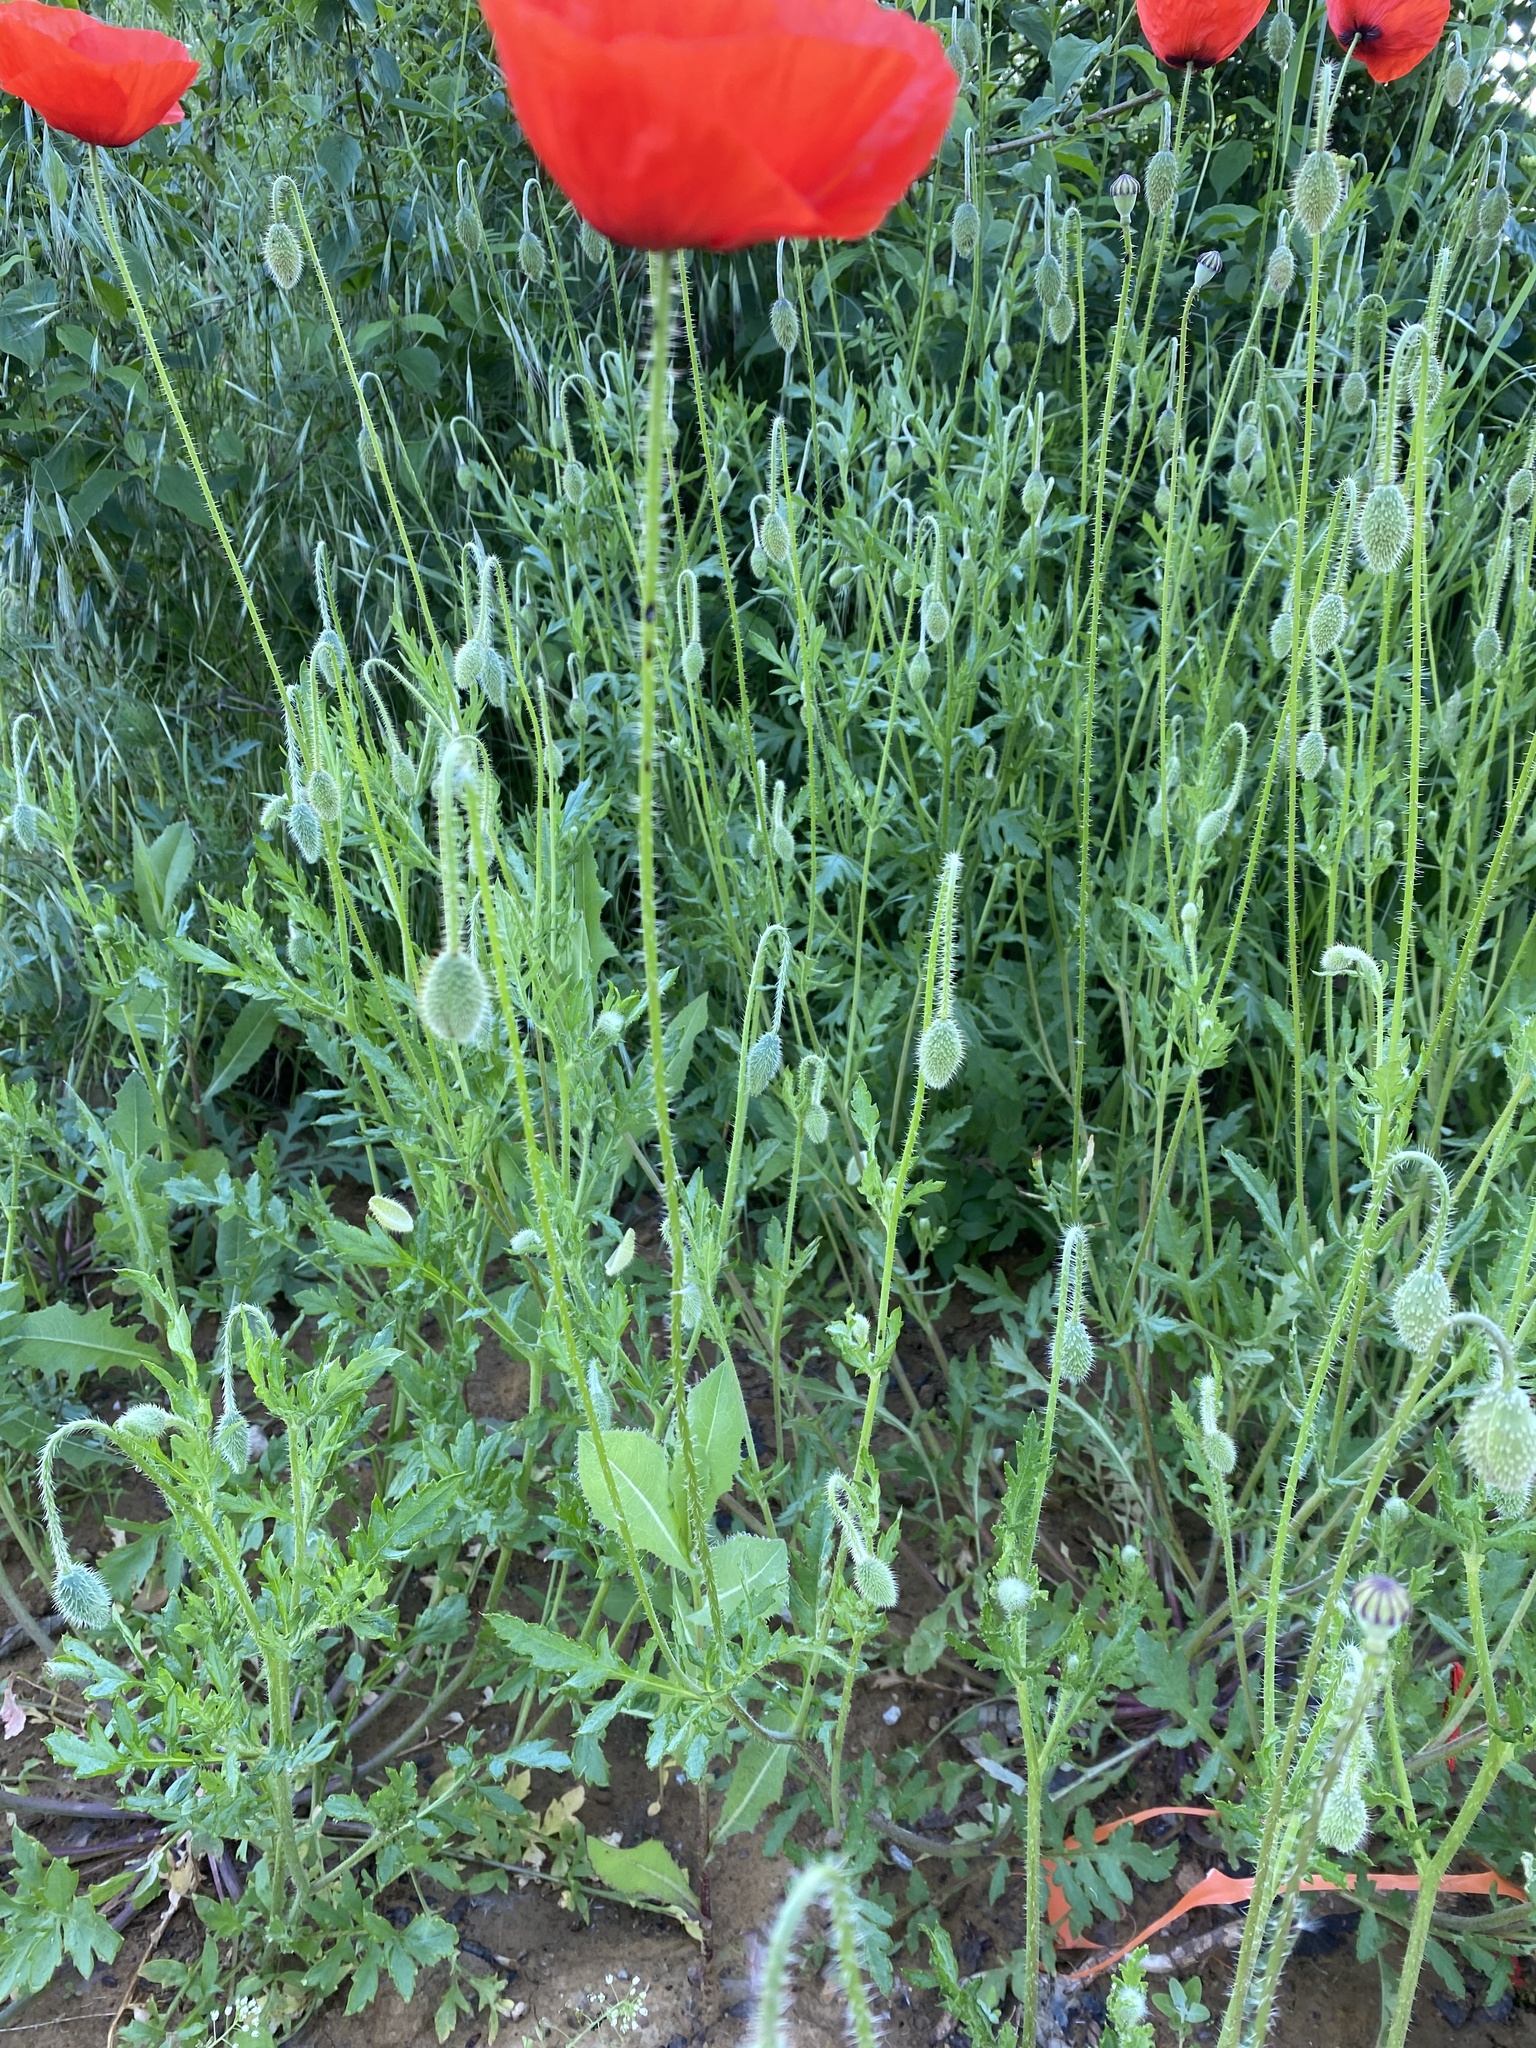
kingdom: Plantae
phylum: Tracheophyta
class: Magnoliopsida
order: Ranunculales
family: Papaveraceae
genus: Papaver
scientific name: Papaver rhoeas
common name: Corn poppy
